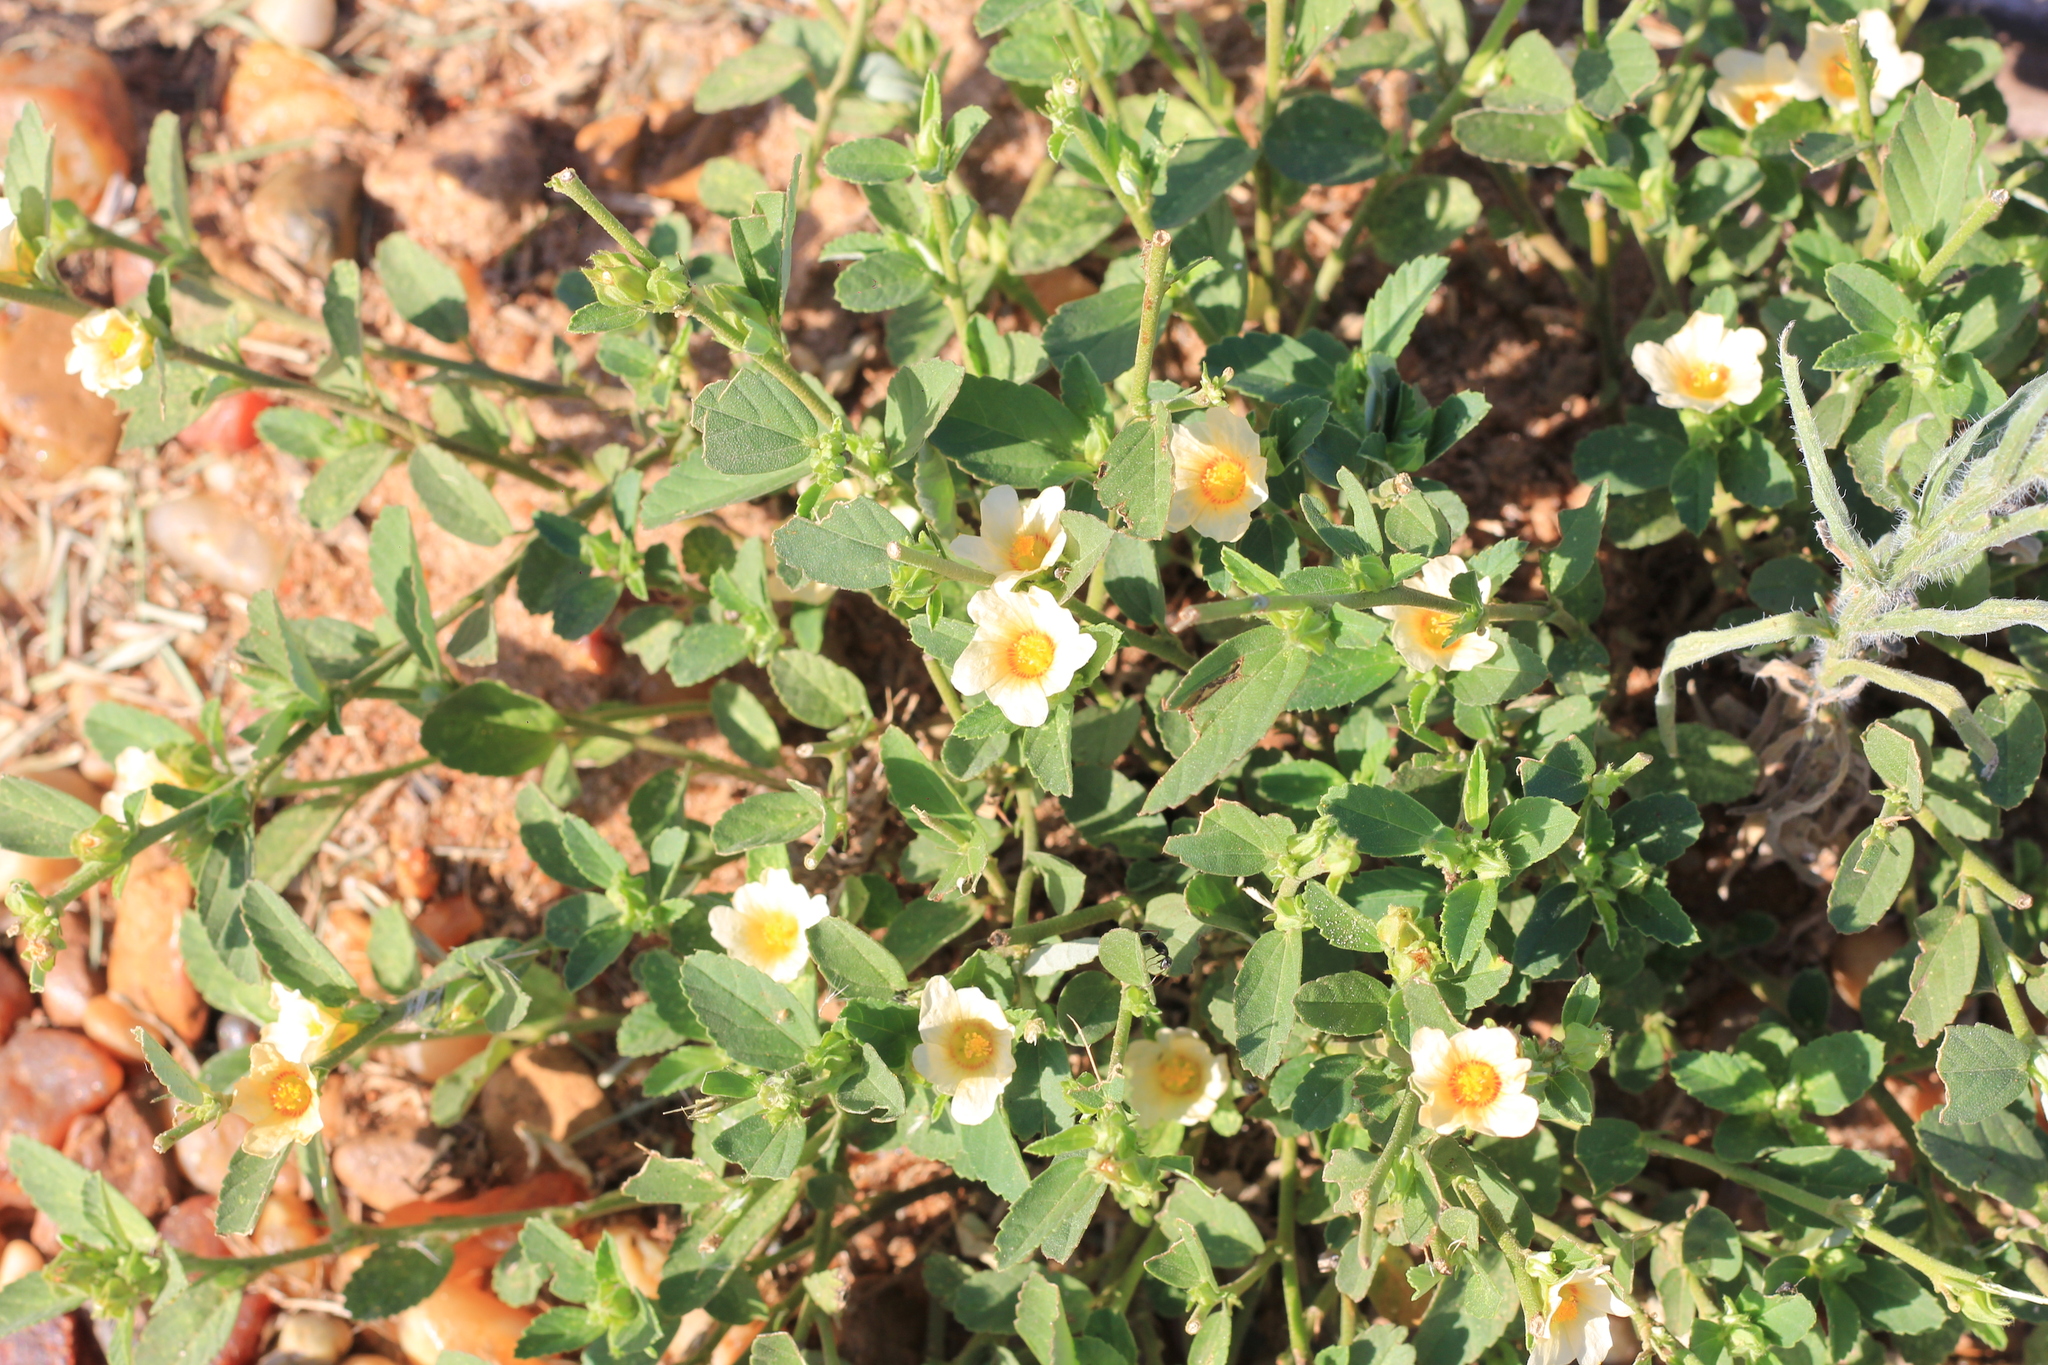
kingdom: Plantae
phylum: Tracheophyta
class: Magnoliopsida
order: Malvales
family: Malvaceae
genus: Sida
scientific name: Sida tuberculata
